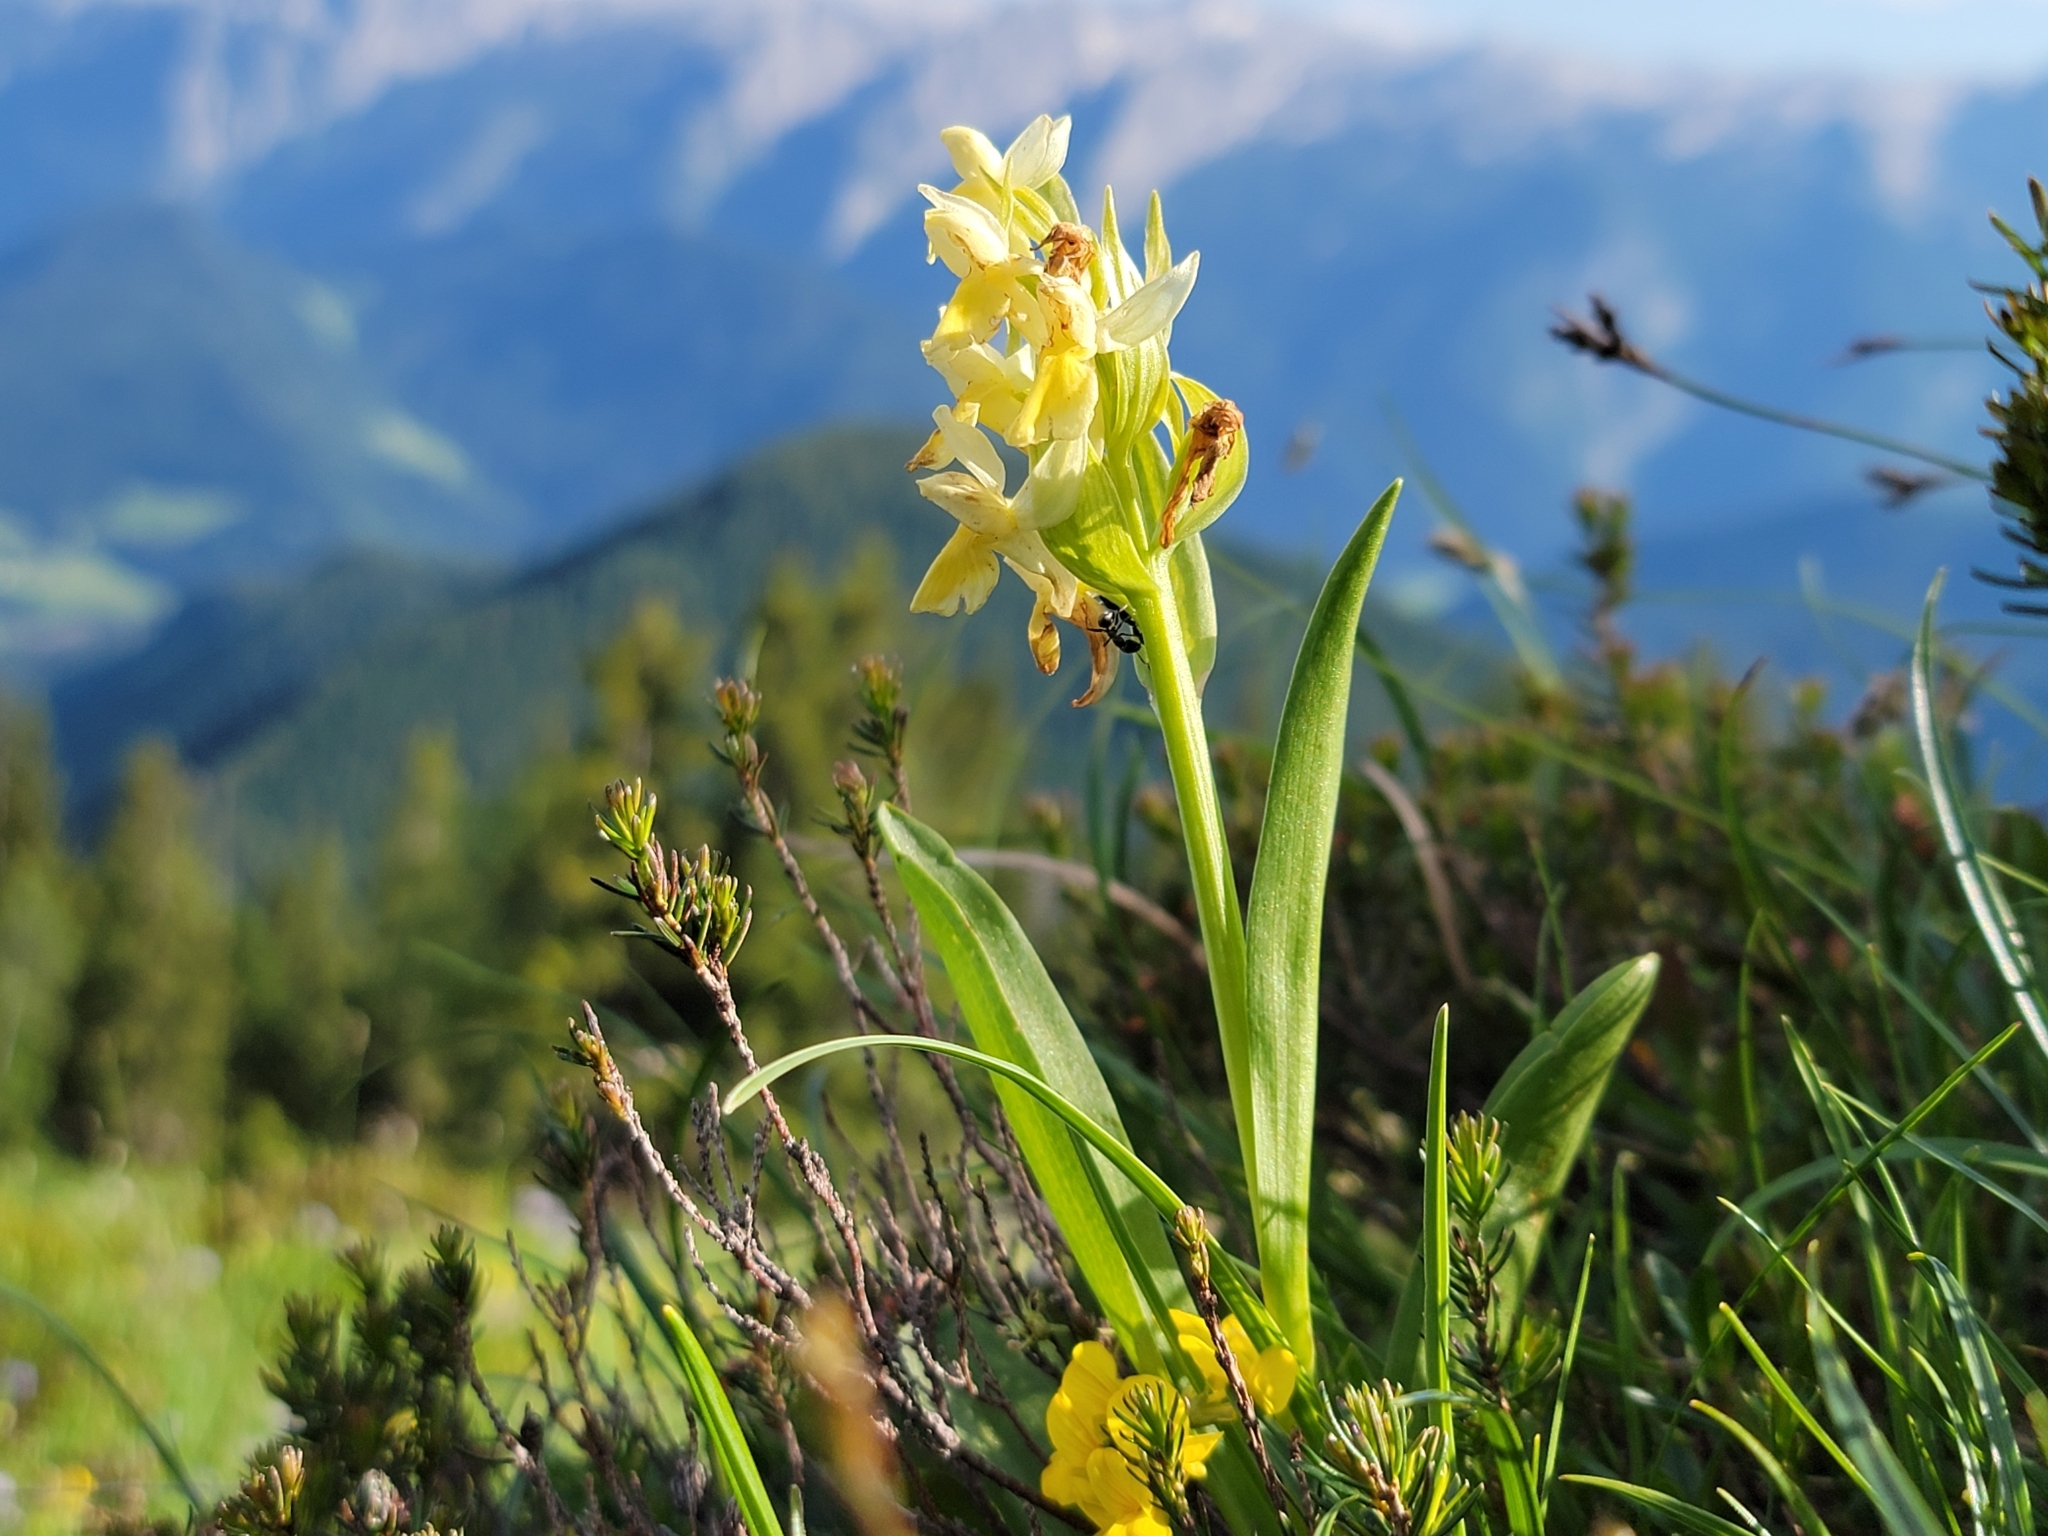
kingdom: Plantae
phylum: Tracheophyta
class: Liliopsida
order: Asparagales
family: Orchidaceae
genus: Dactylorhiza
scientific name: Dactylorhiza sambucina
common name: Elder-flowered orchid
